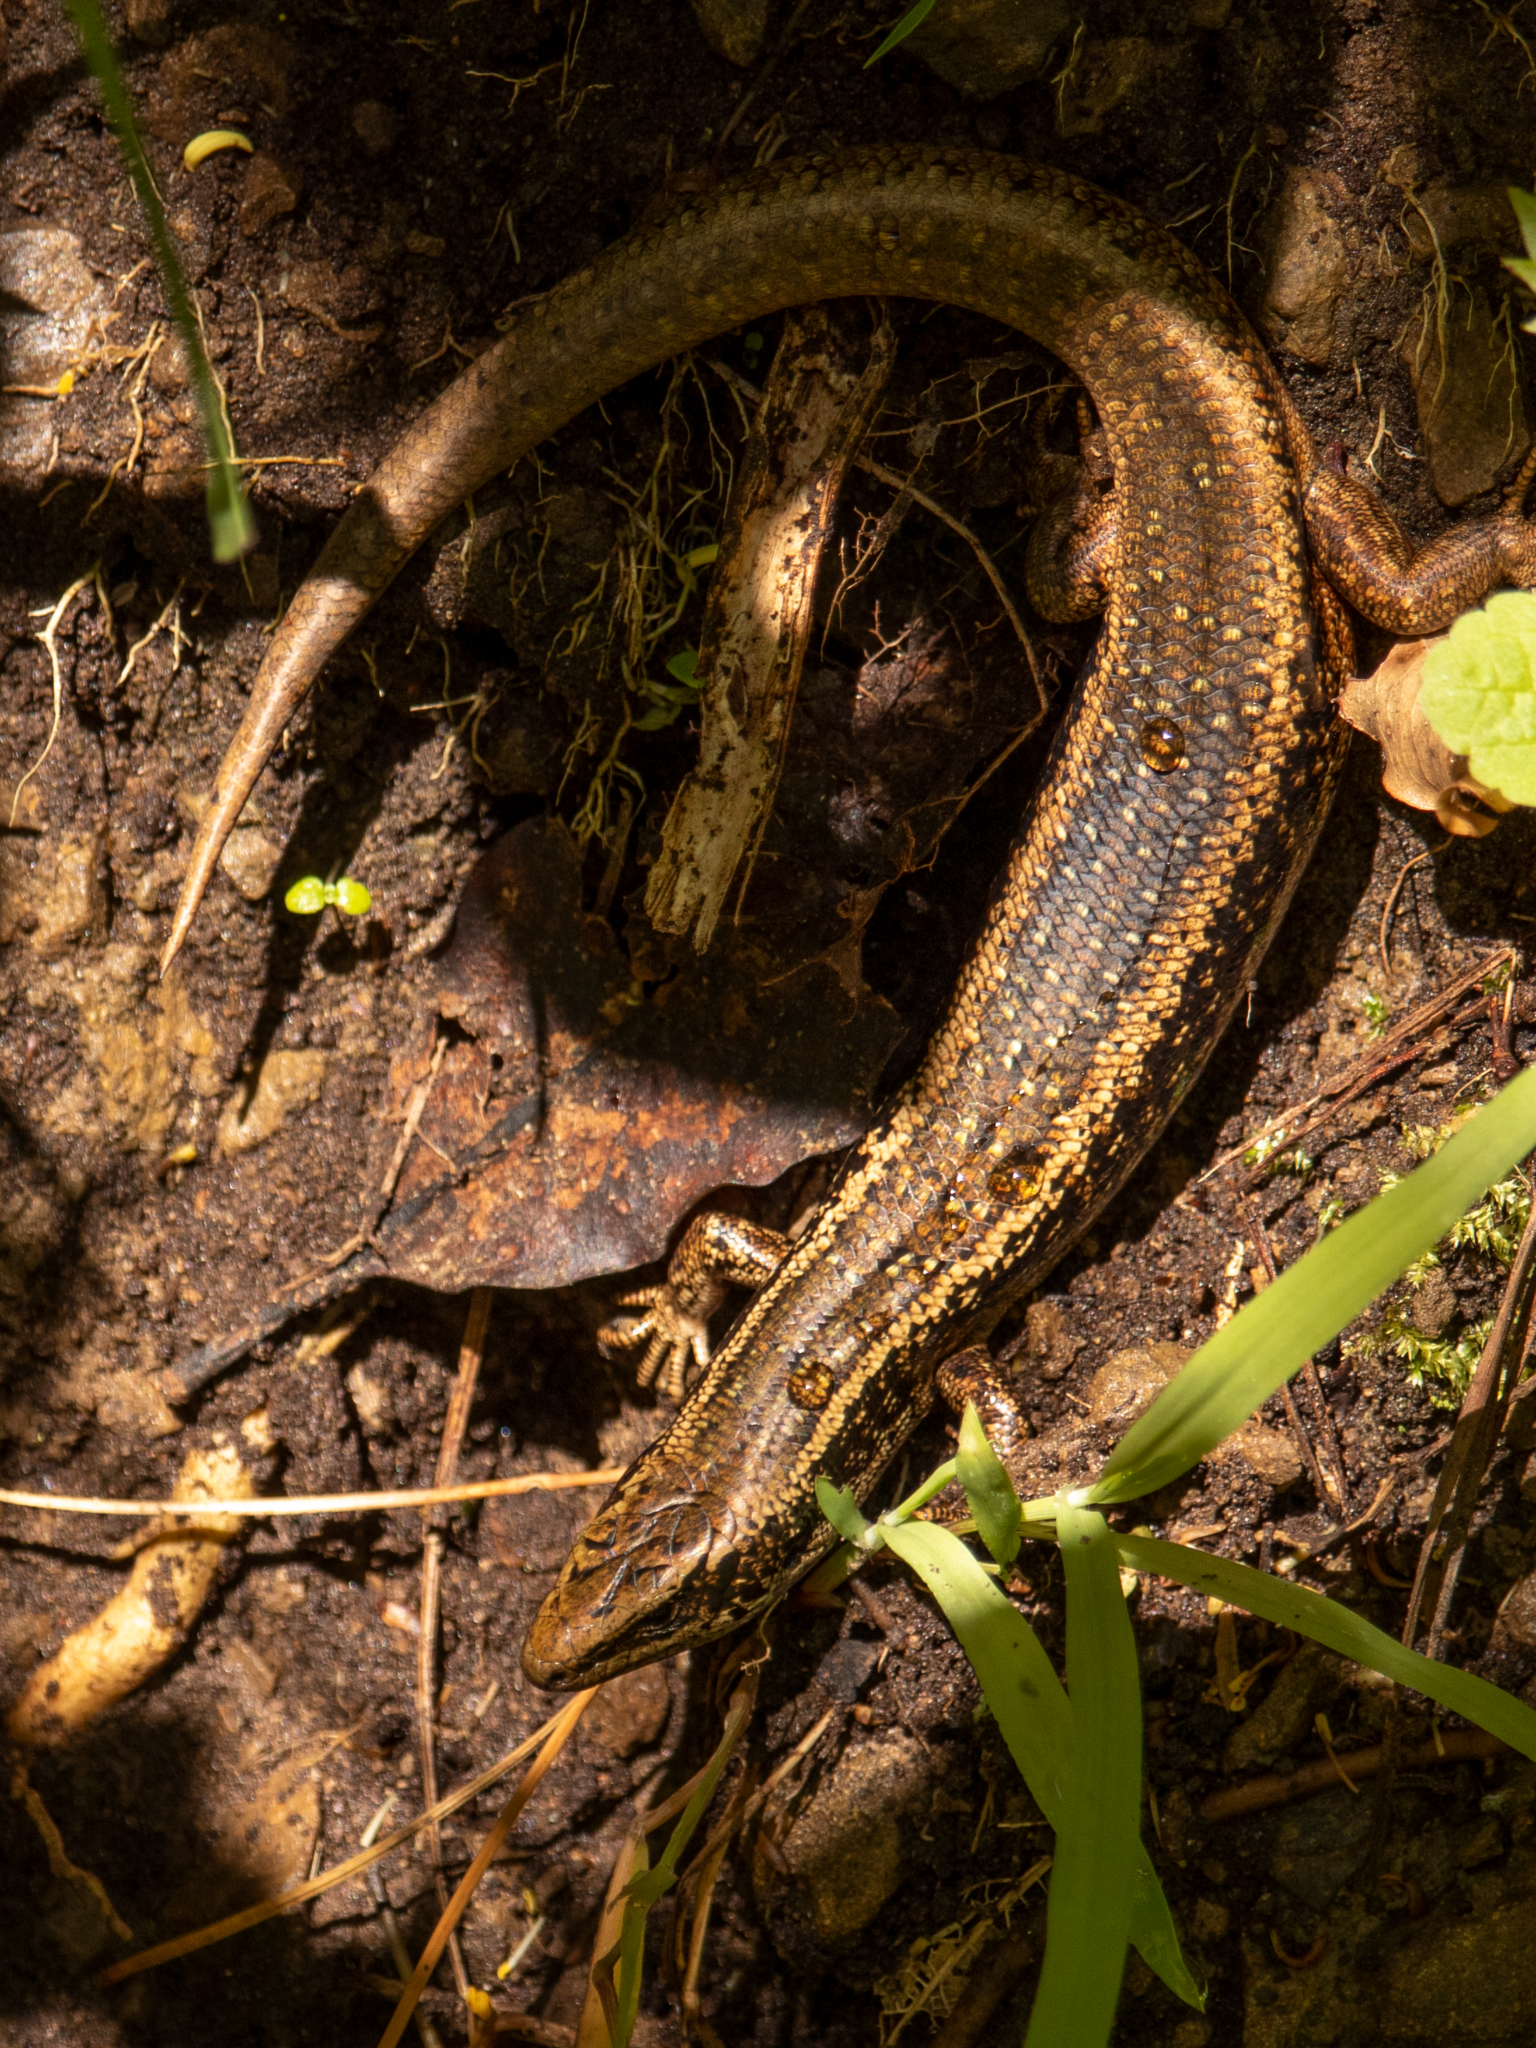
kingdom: Animalia
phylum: Chordata
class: Squamata
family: Scincidae
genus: Oligosoma
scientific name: Oligosoma kokowai
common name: Northern spotted skink
